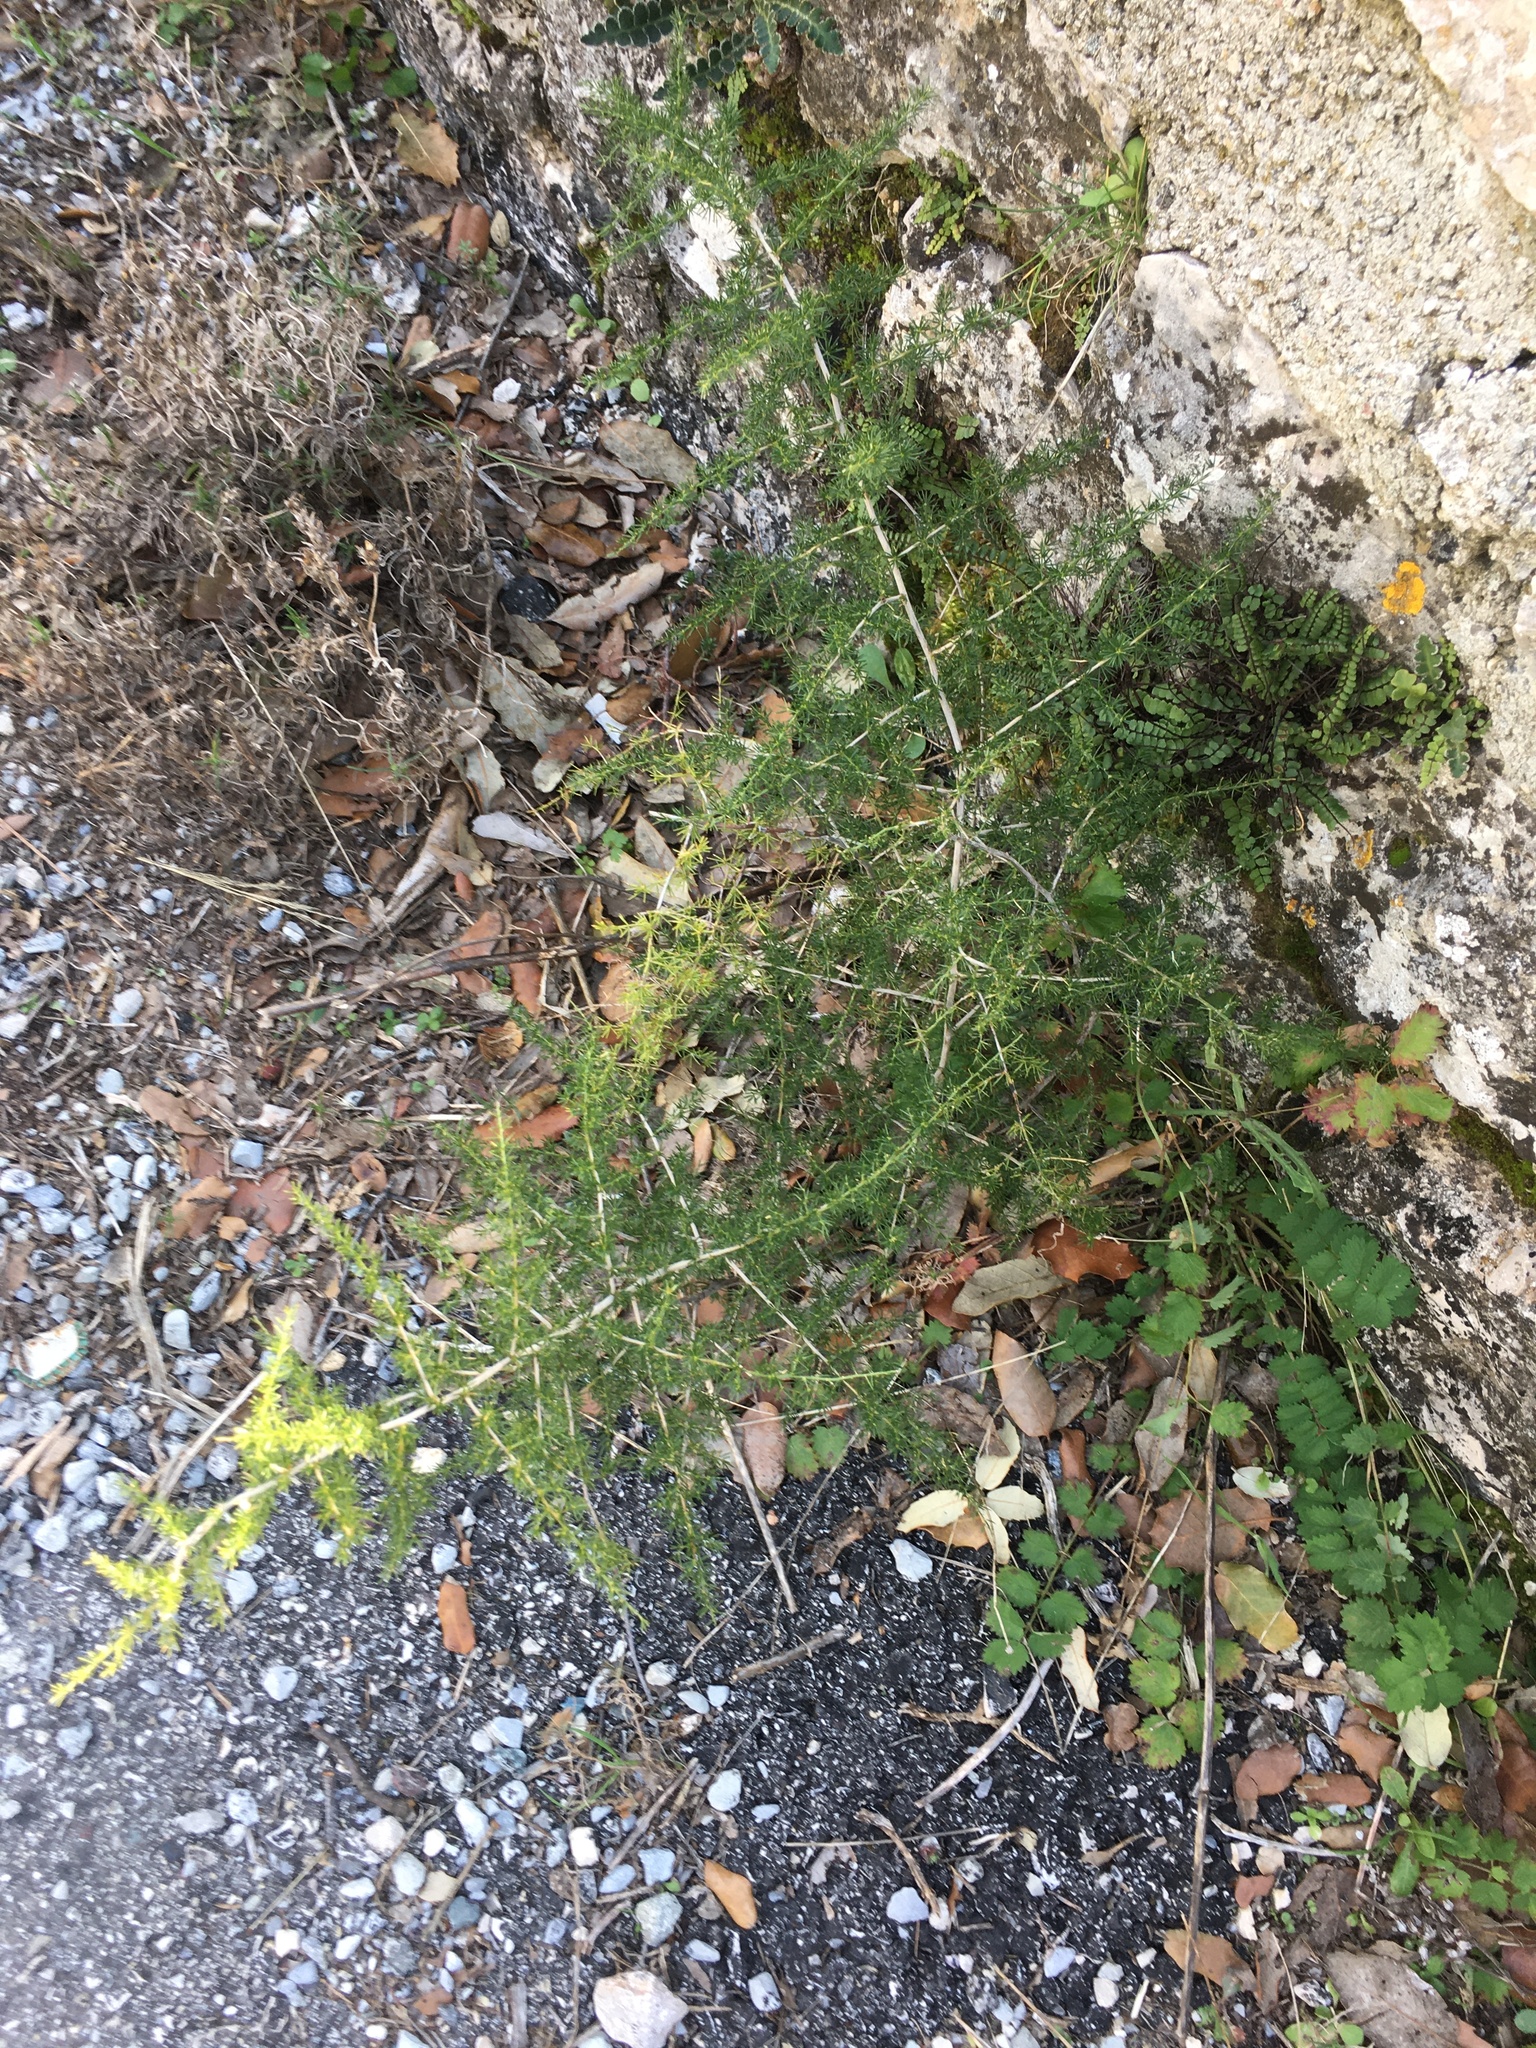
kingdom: Plantae
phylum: Tracheophyta
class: Liliopsida
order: Asparagales
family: Asparagaceae
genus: Asparagus
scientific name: Asparagus acutifolius
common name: Wild asparagus
